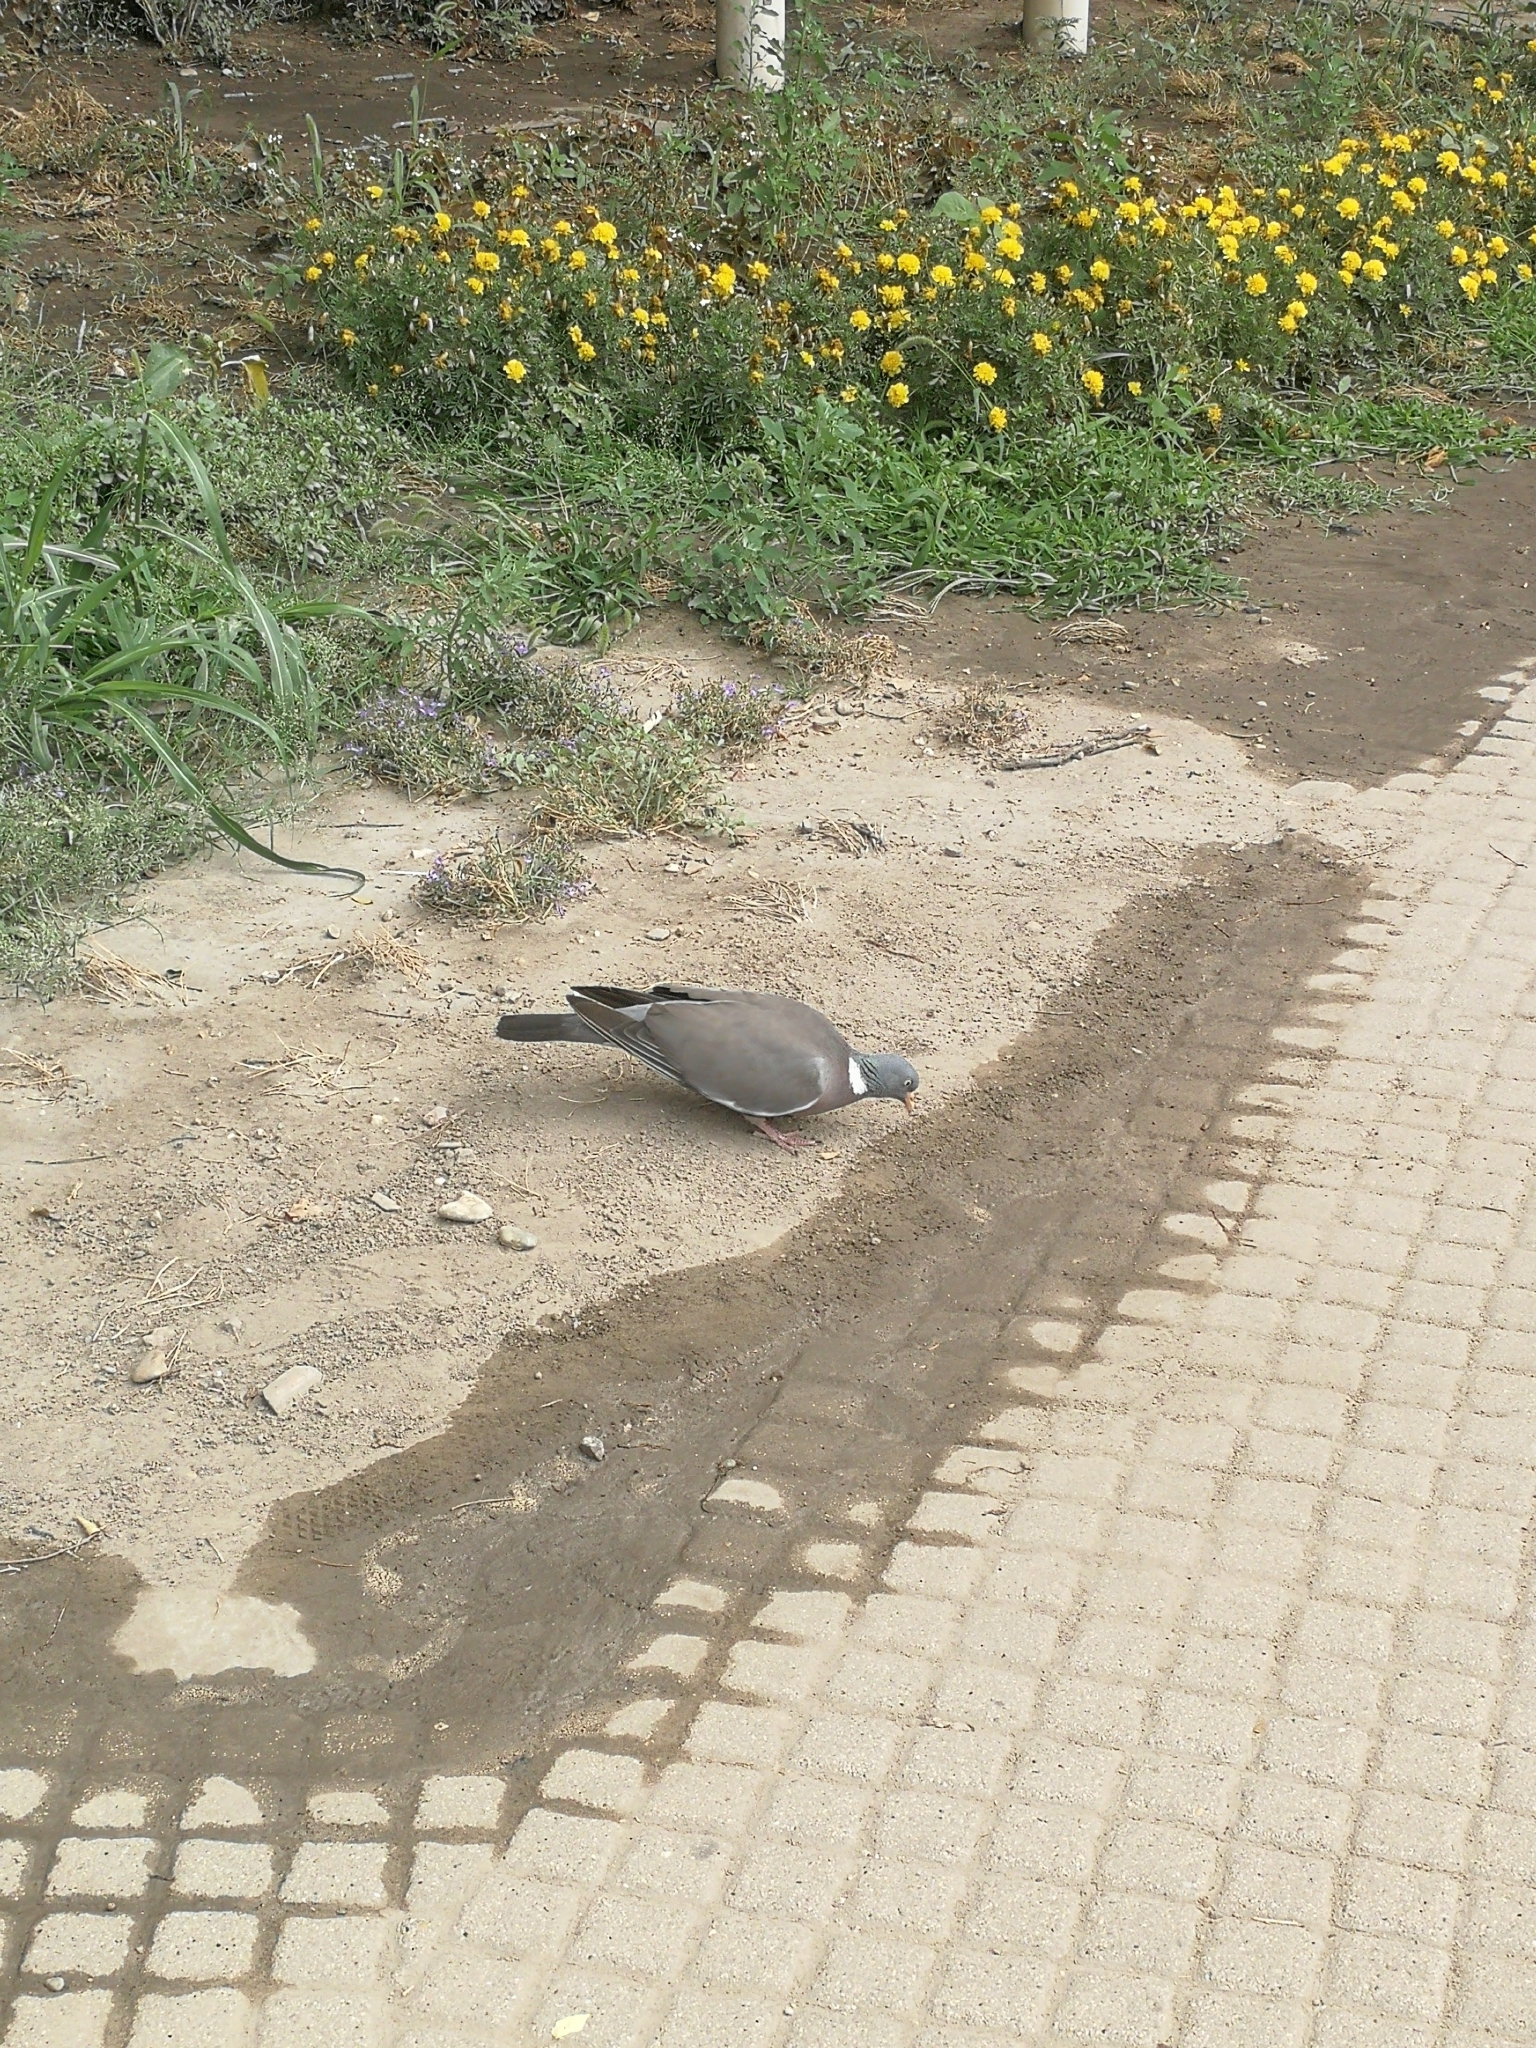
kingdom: Animalia
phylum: Chordata
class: Aves
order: Columbiformes
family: Columbidae
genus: Columba
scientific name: Columba palumbus
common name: Common wood pigeon
